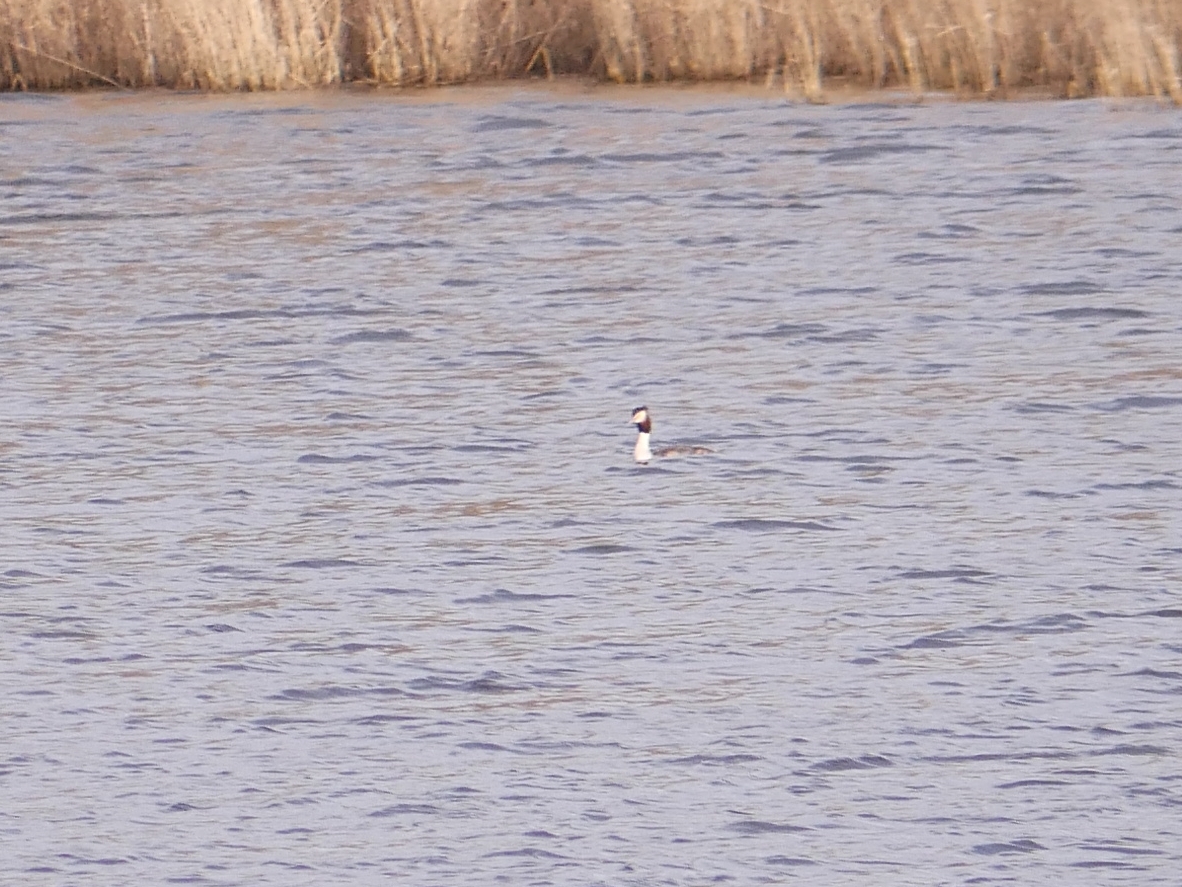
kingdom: Animalia
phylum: Chordata
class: Aves
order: Podicipediformes
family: Podicipedidae
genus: Podiceps
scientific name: Podiceps cristatus
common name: Great crested grebe
